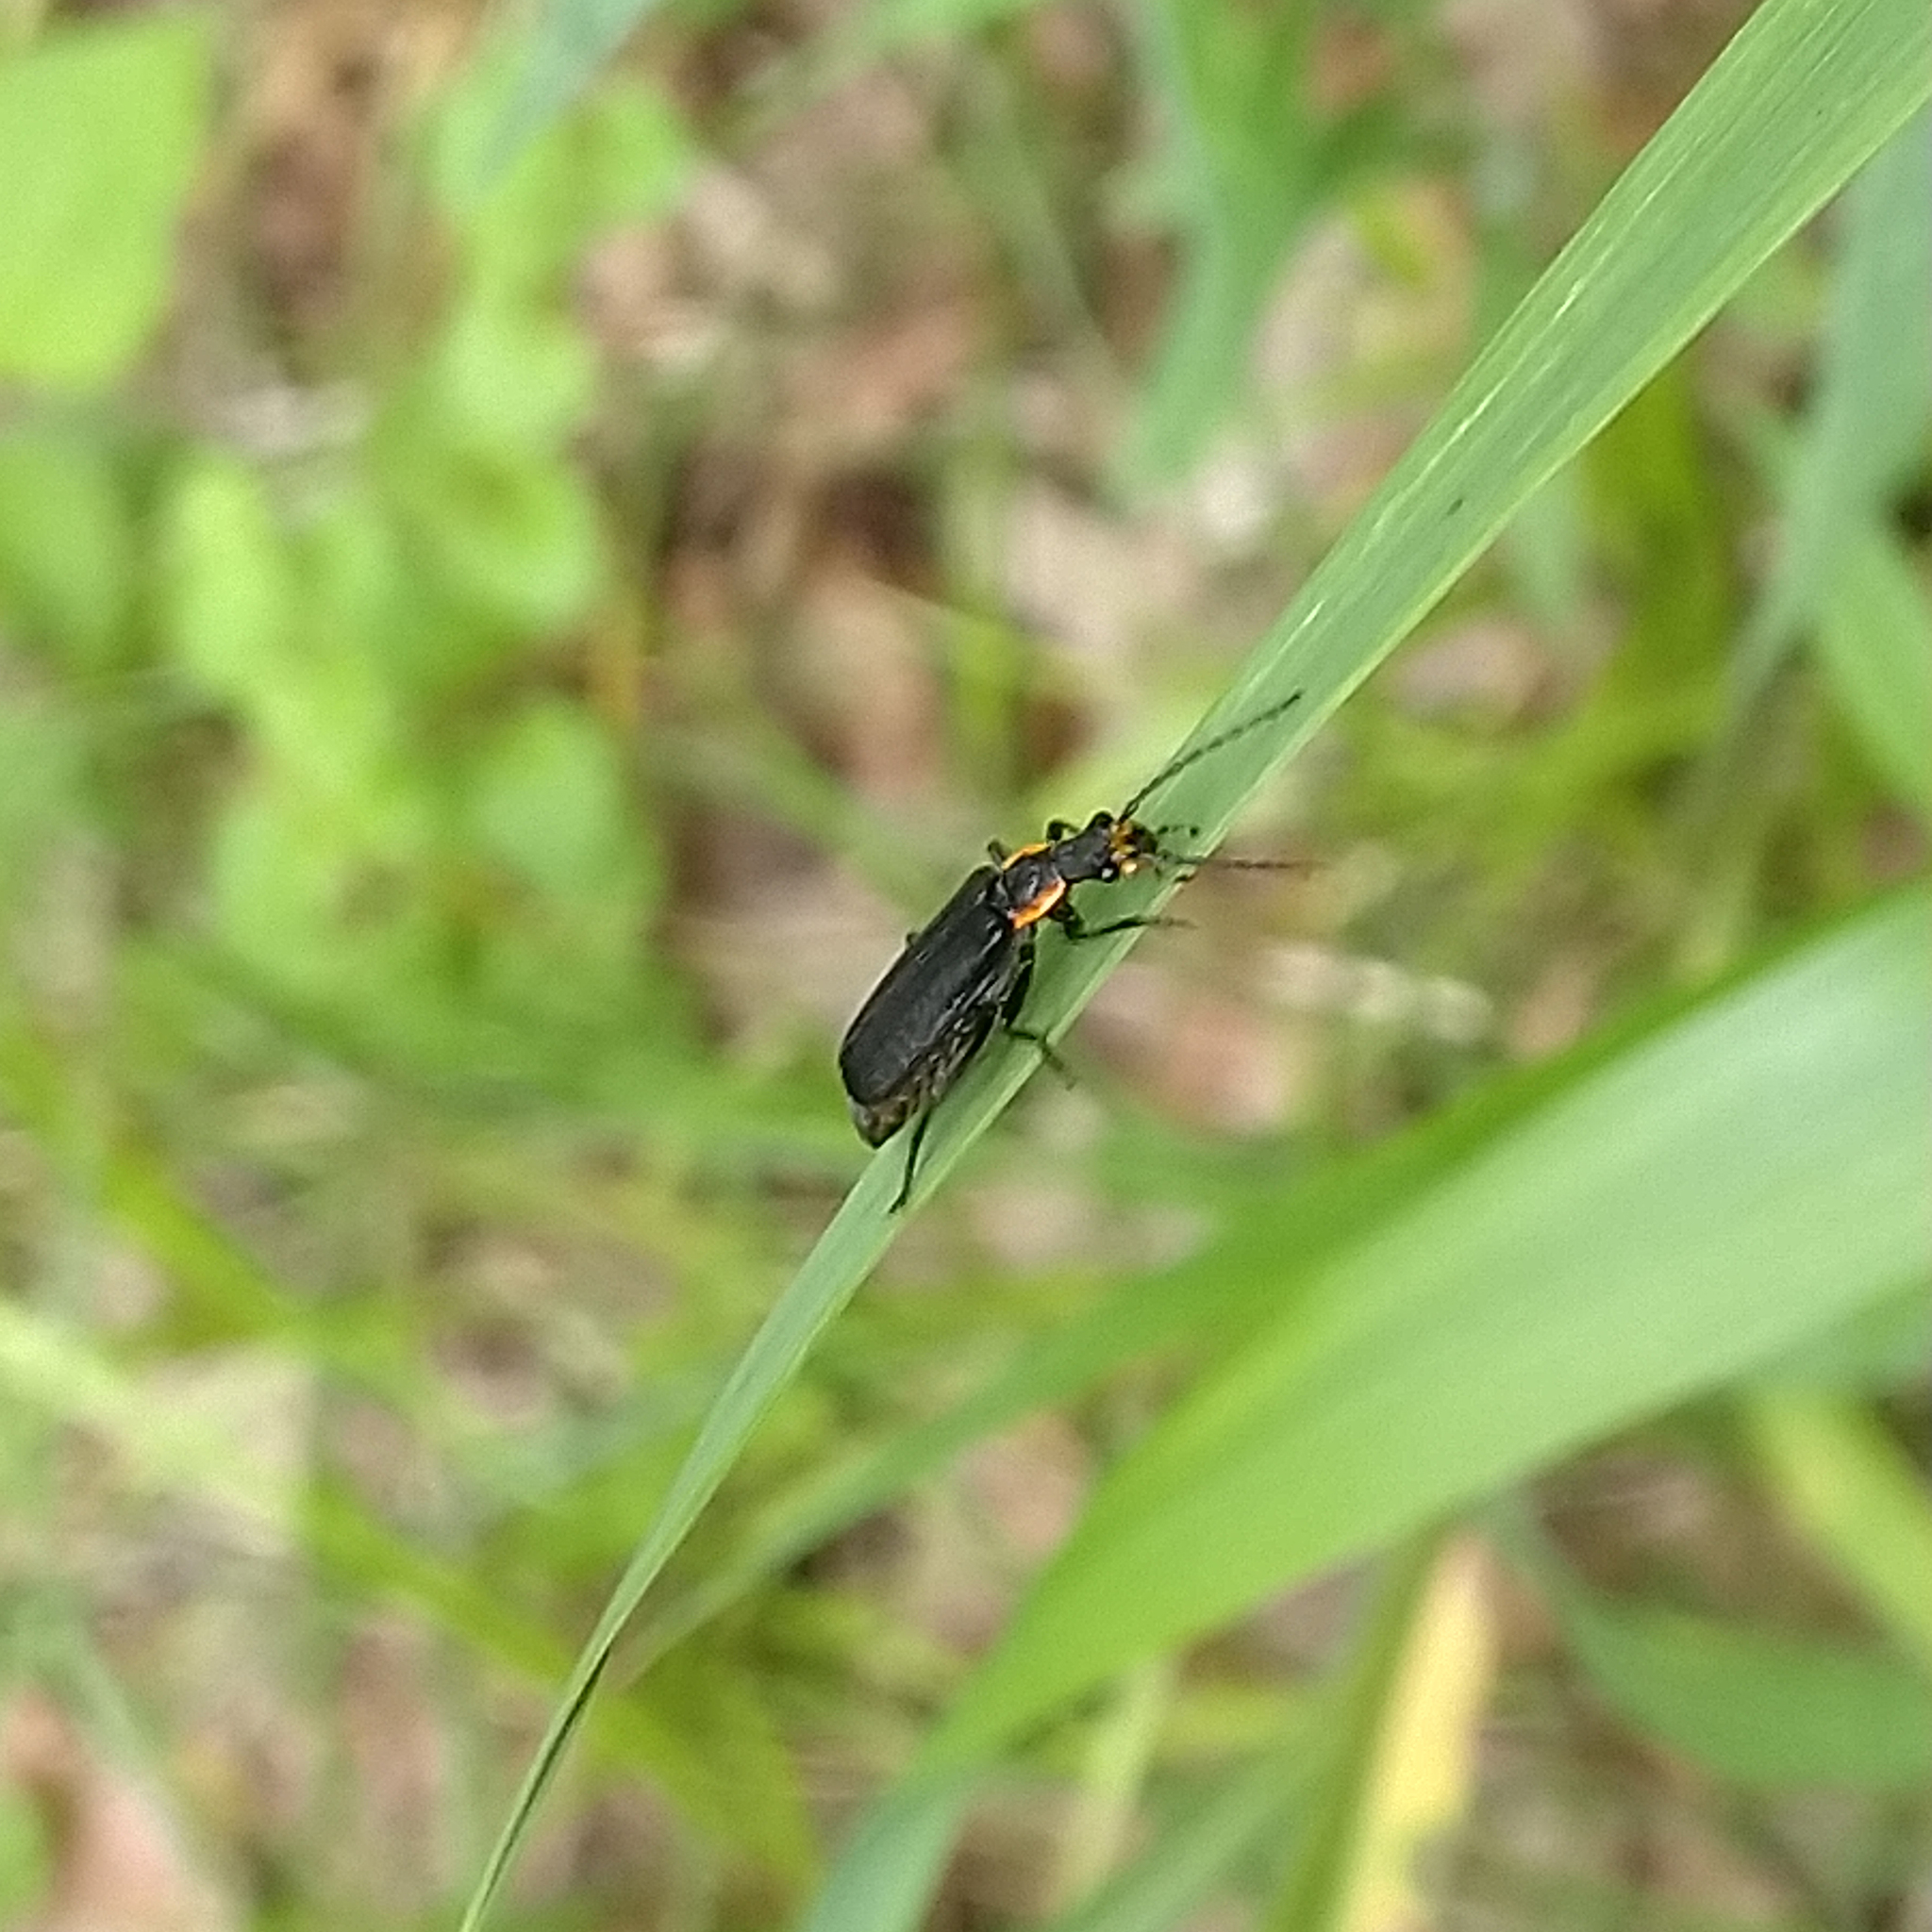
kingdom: Animalia
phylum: Arthropoda
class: Insecta
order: Coleoptera
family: Cantharidae
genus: Podabrus
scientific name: Podabrus rugosulus
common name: Wrinkled soldier beetle
